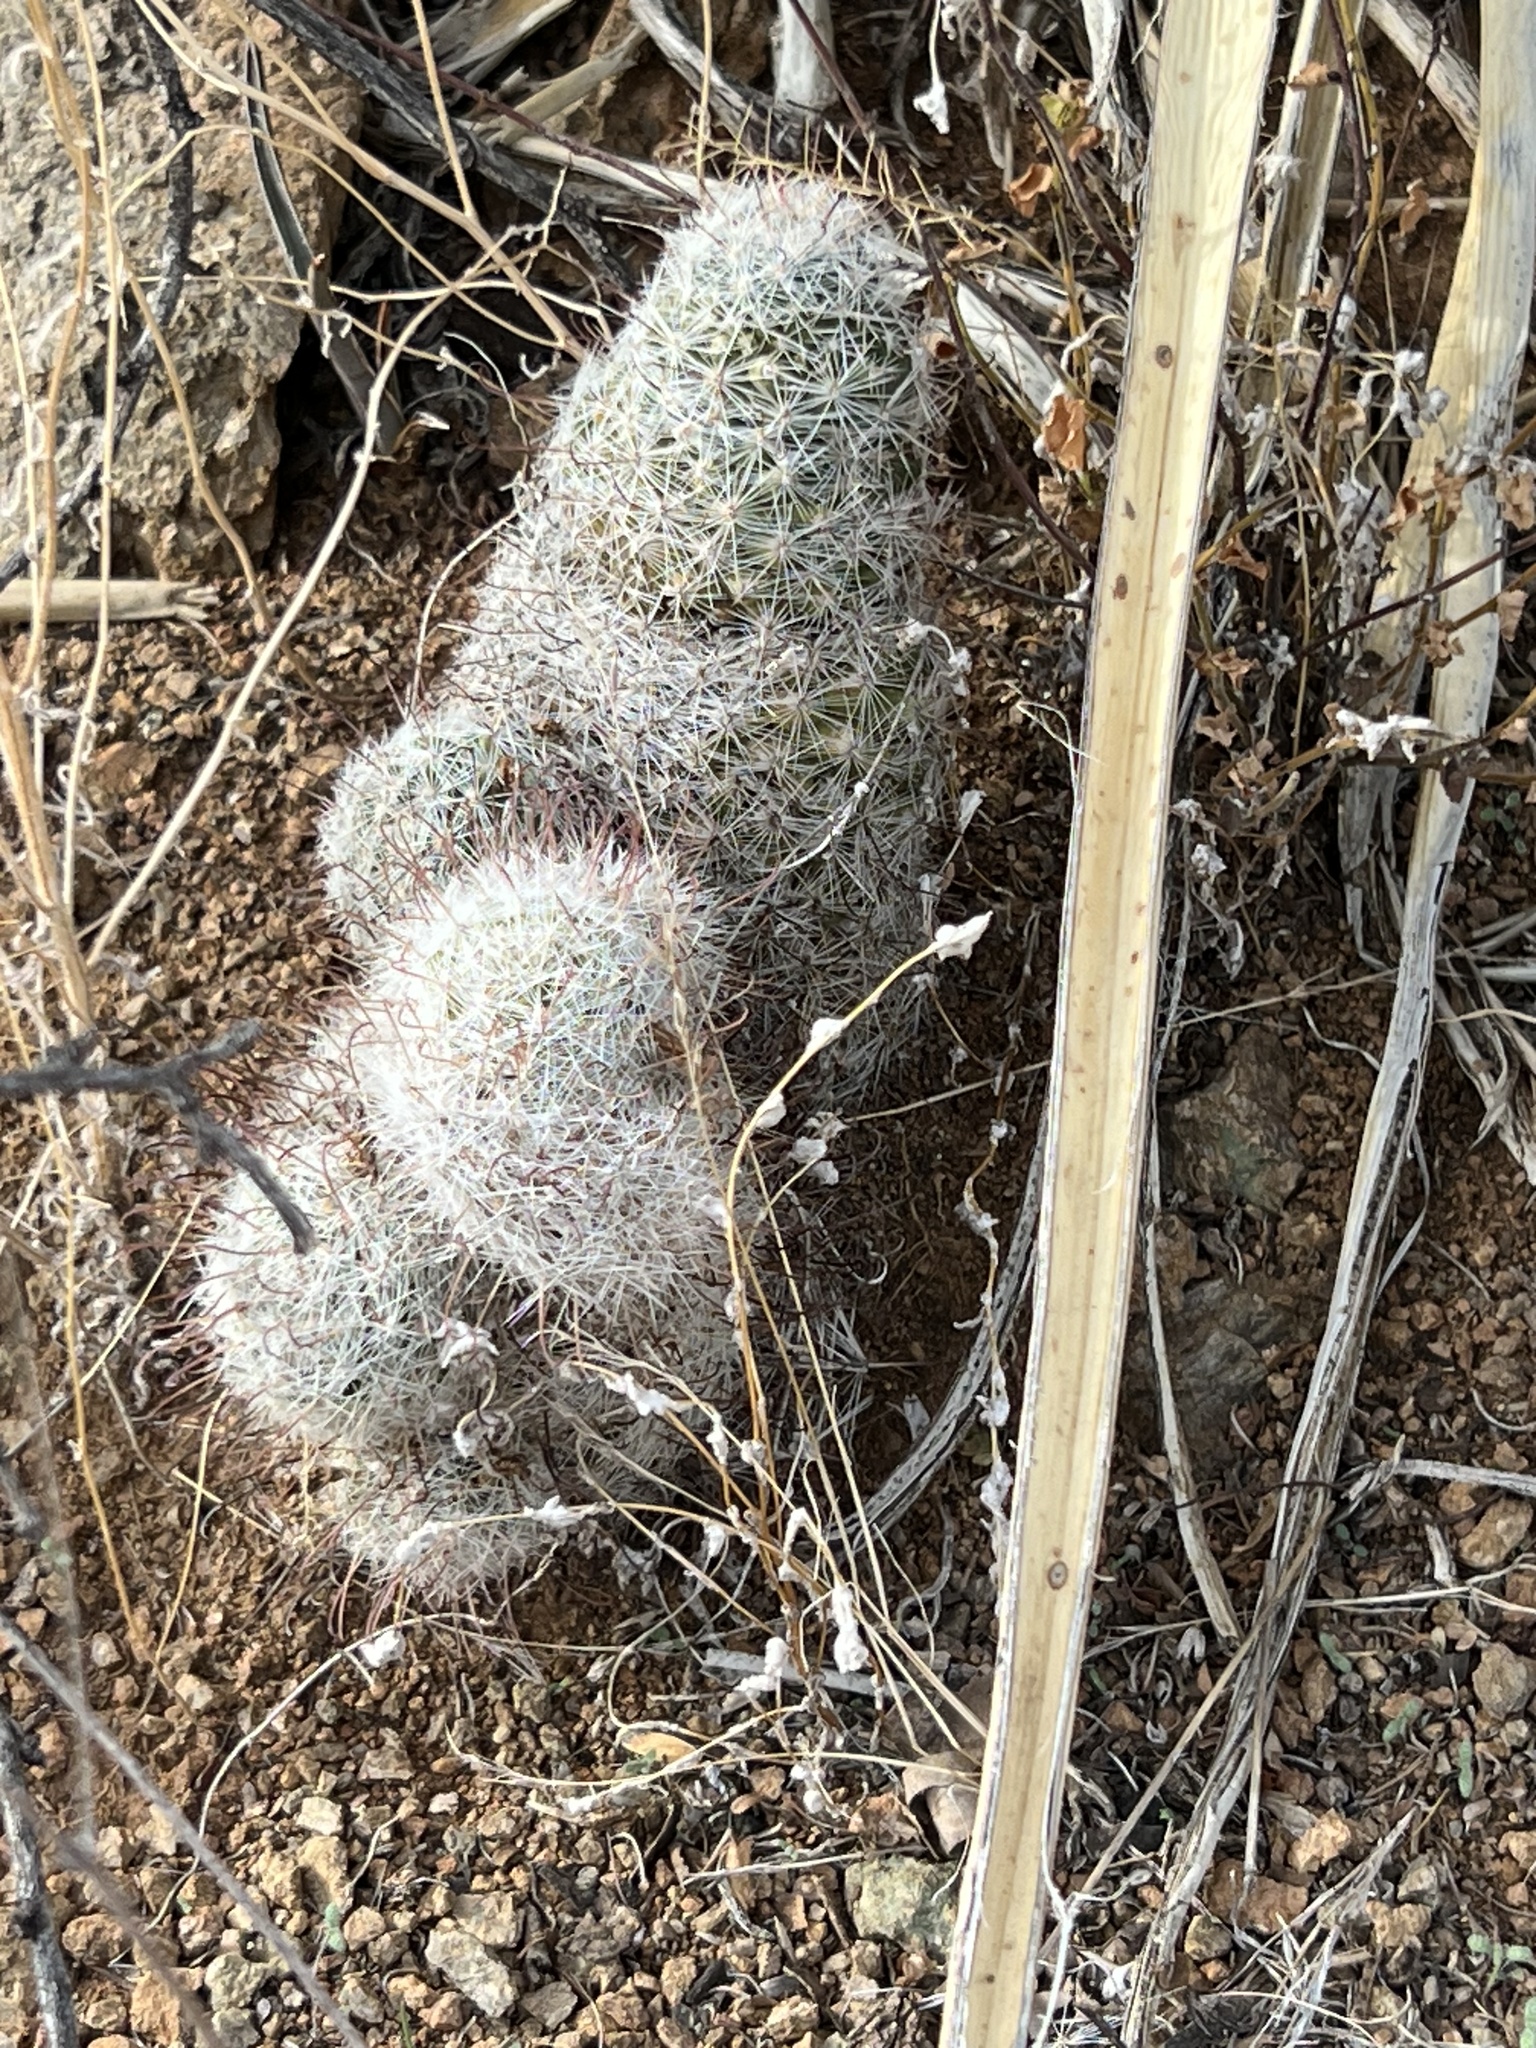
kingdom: Plantae
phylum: Tracheophyta
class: Magnoliopsida
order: Caryophyllales
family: Cactaceae
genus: Cochemiea
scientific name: Cochemiea grahamii
